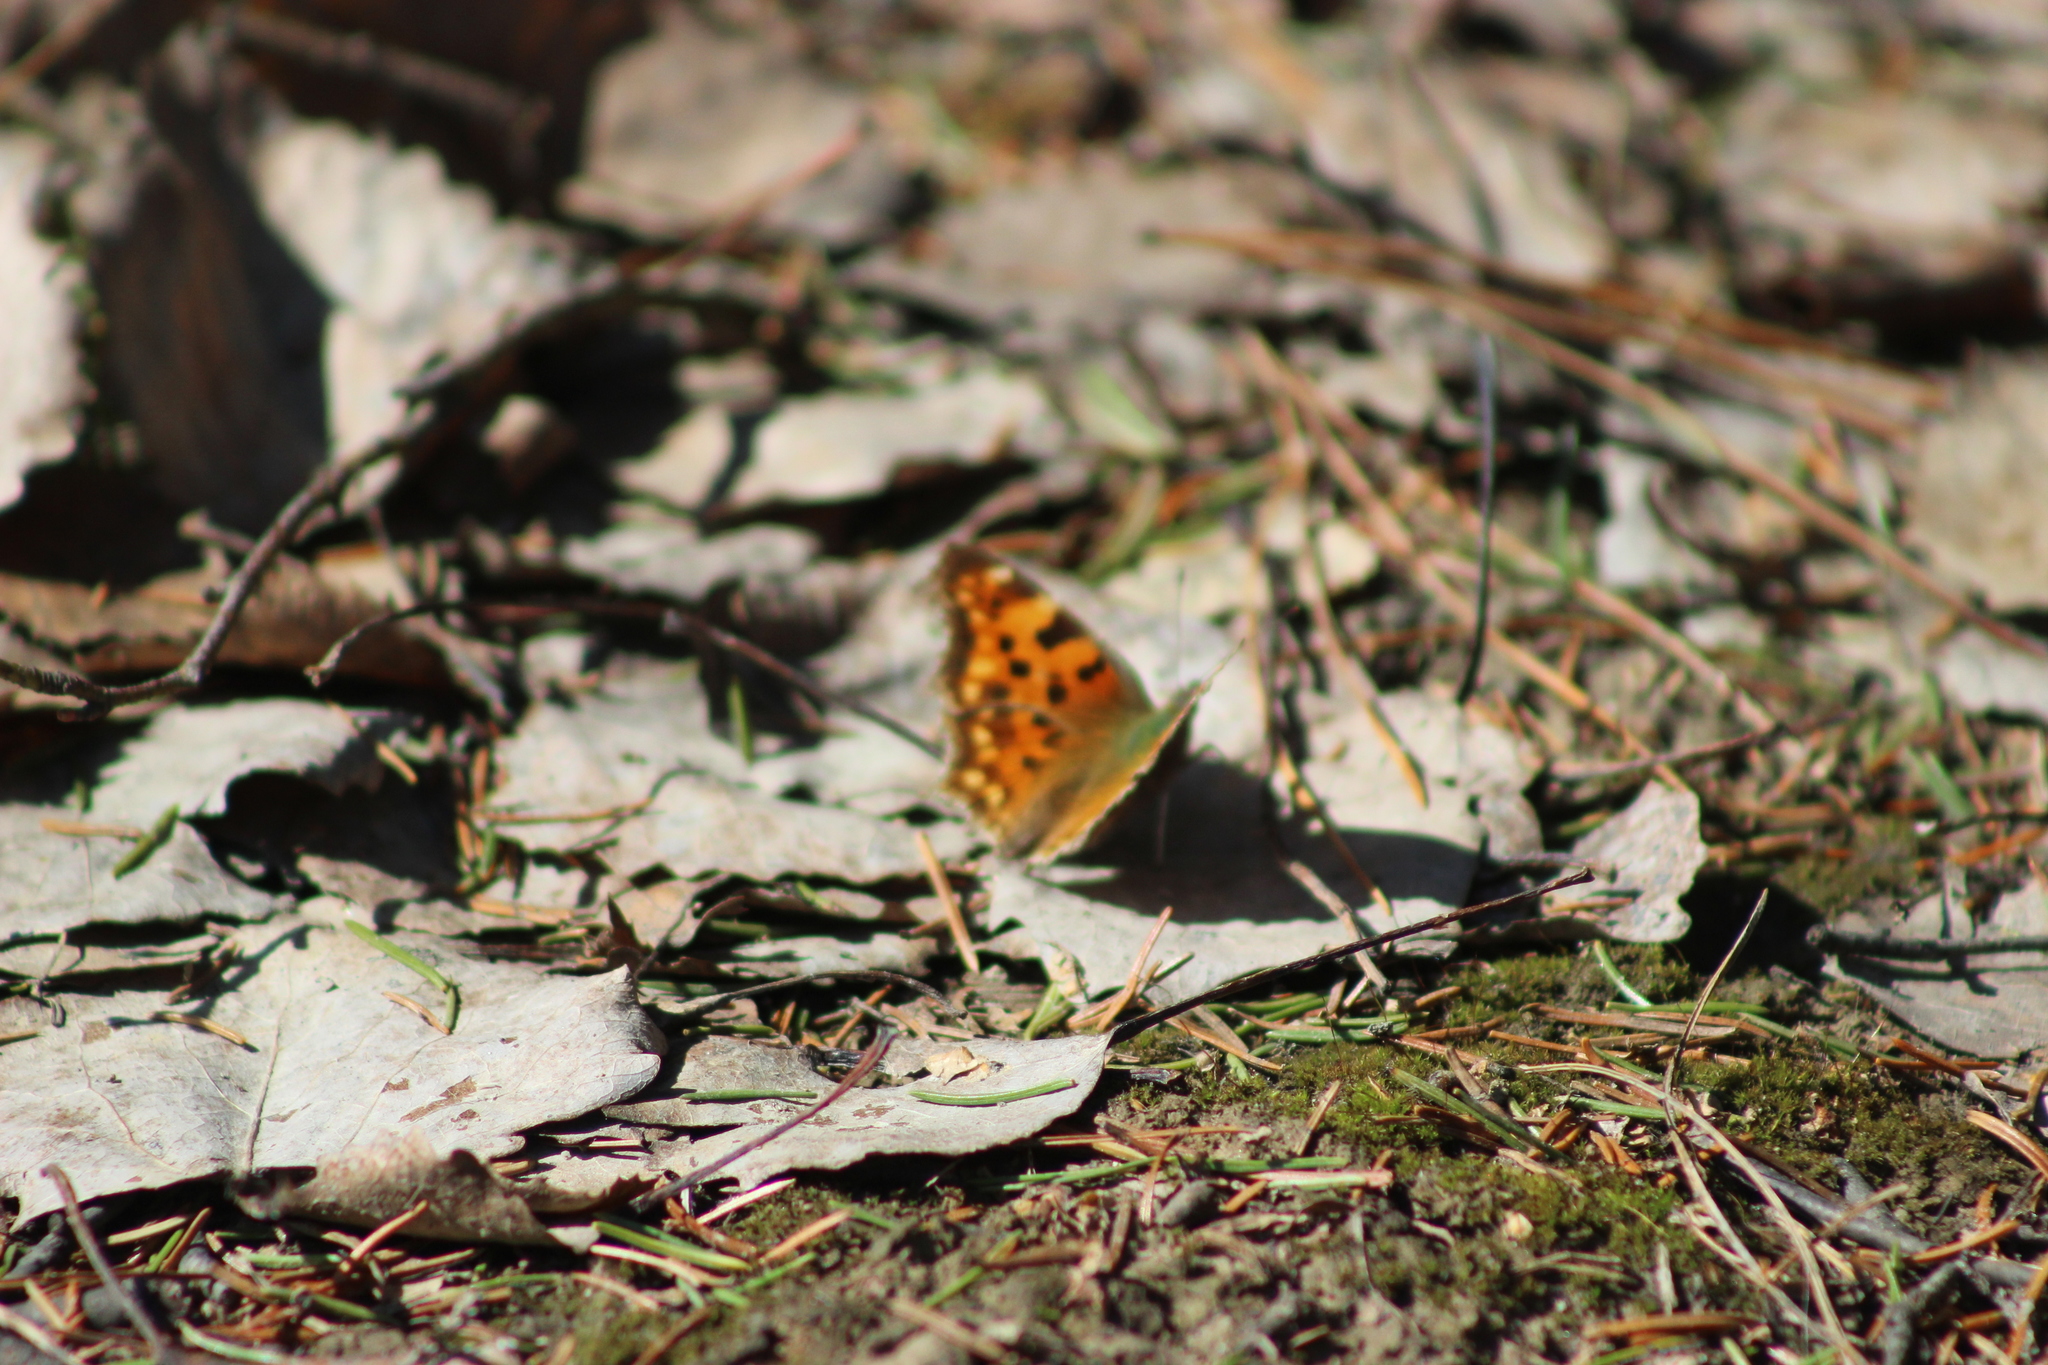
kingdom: Animalia
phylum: Arthropoda
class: Insecta
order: Lepidoptera
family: Nymphalidae
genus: Polygonia
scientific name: Polygonia c-album
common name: Comma
